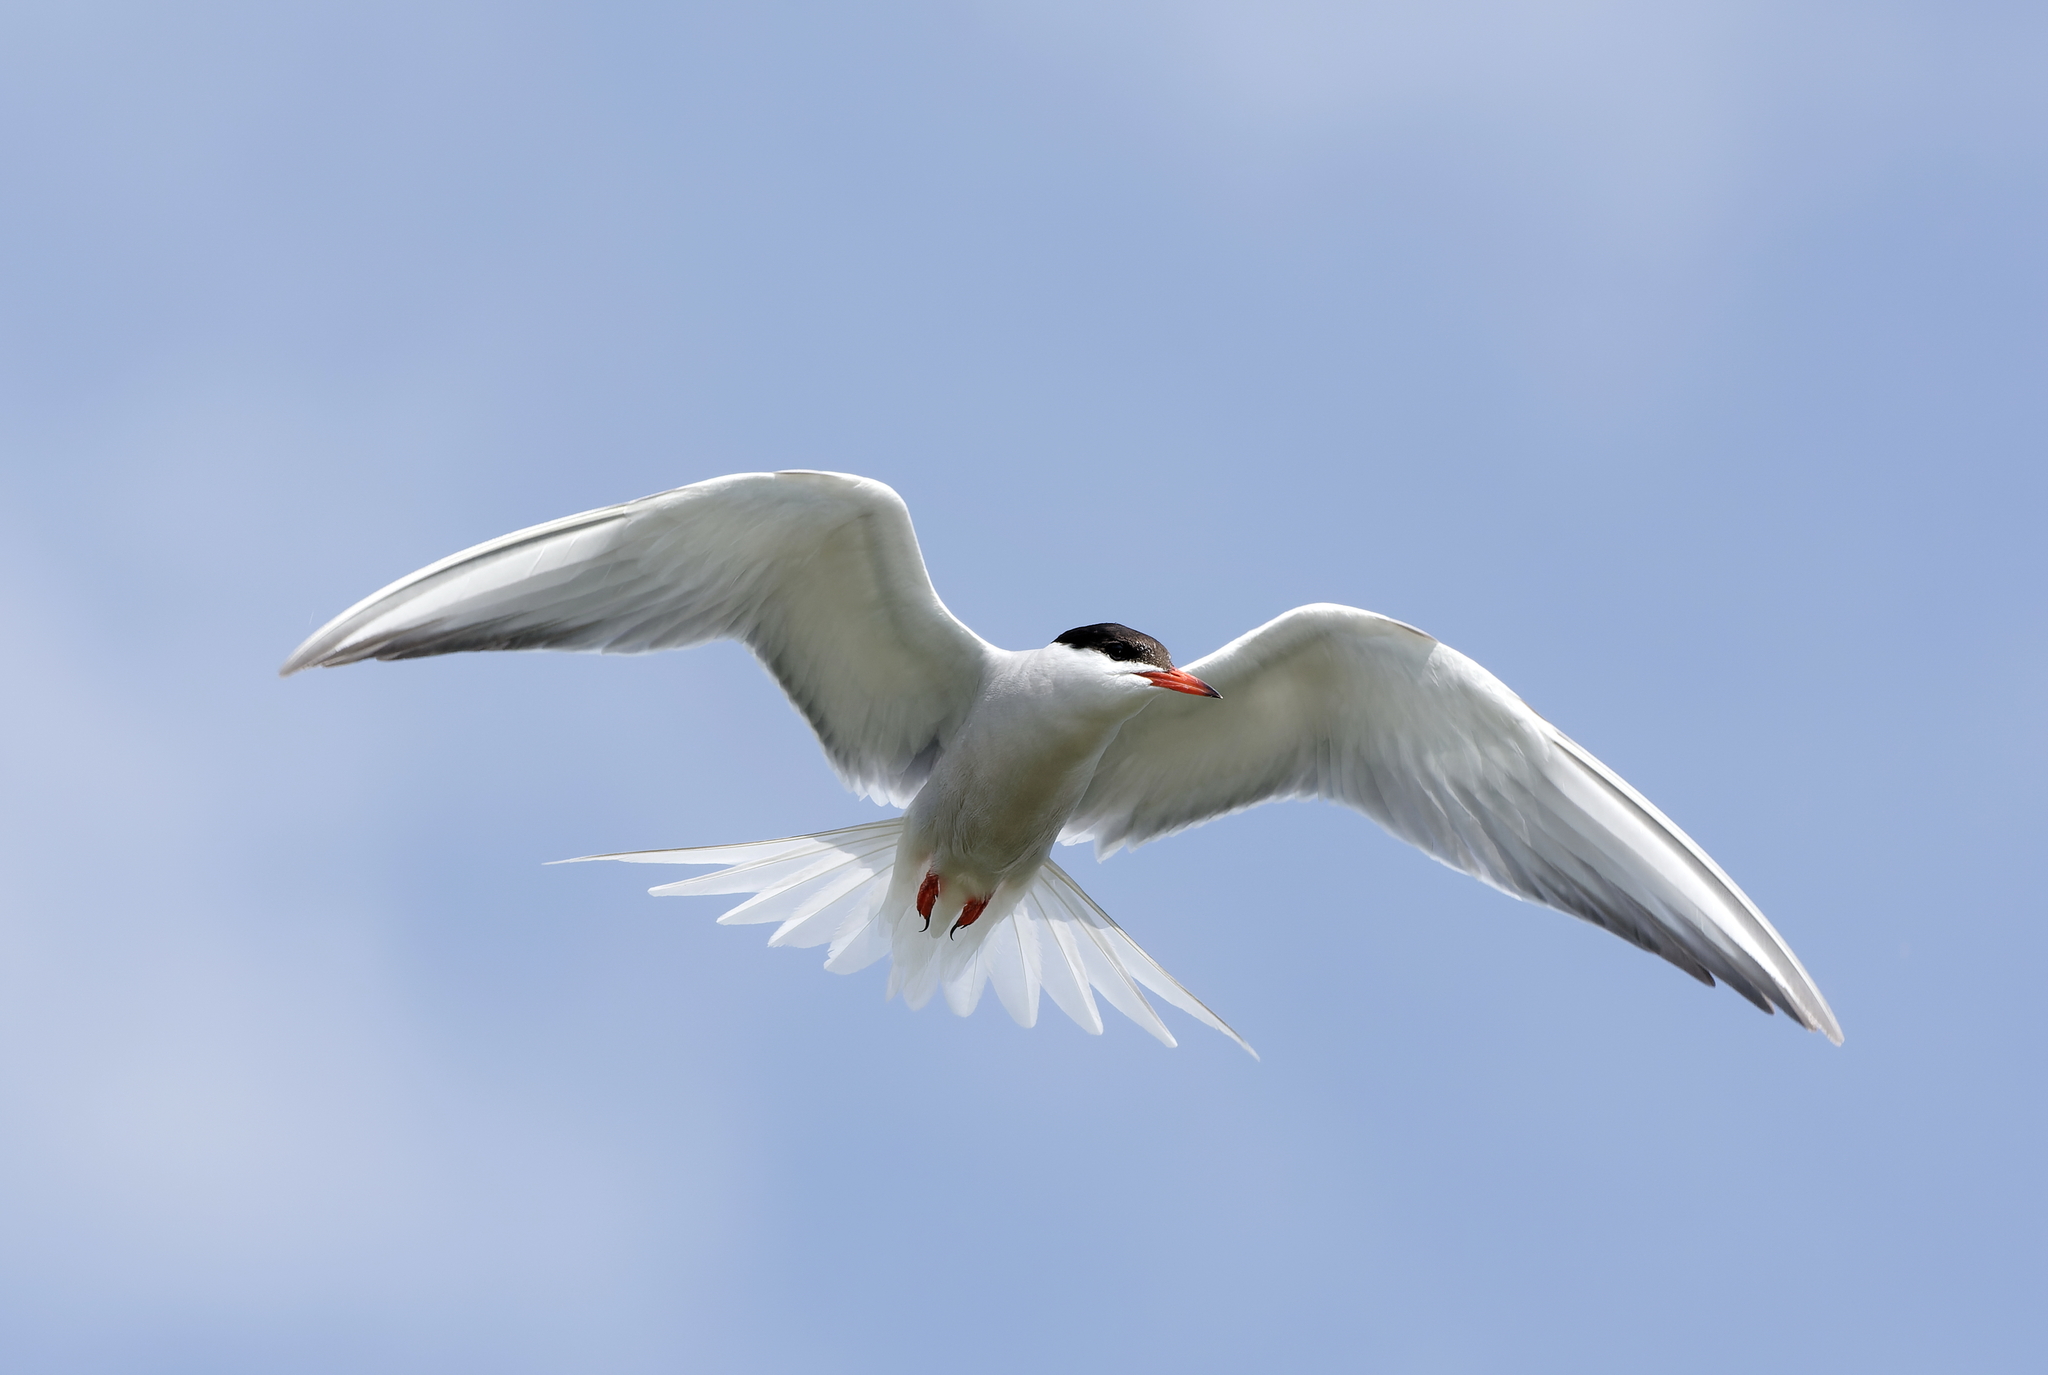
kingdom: Animalia
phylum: Chordata
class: Aves
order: Charadriiformes
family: Laridae
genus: Sterna
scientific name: Sterna hirundo
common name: Common tern
